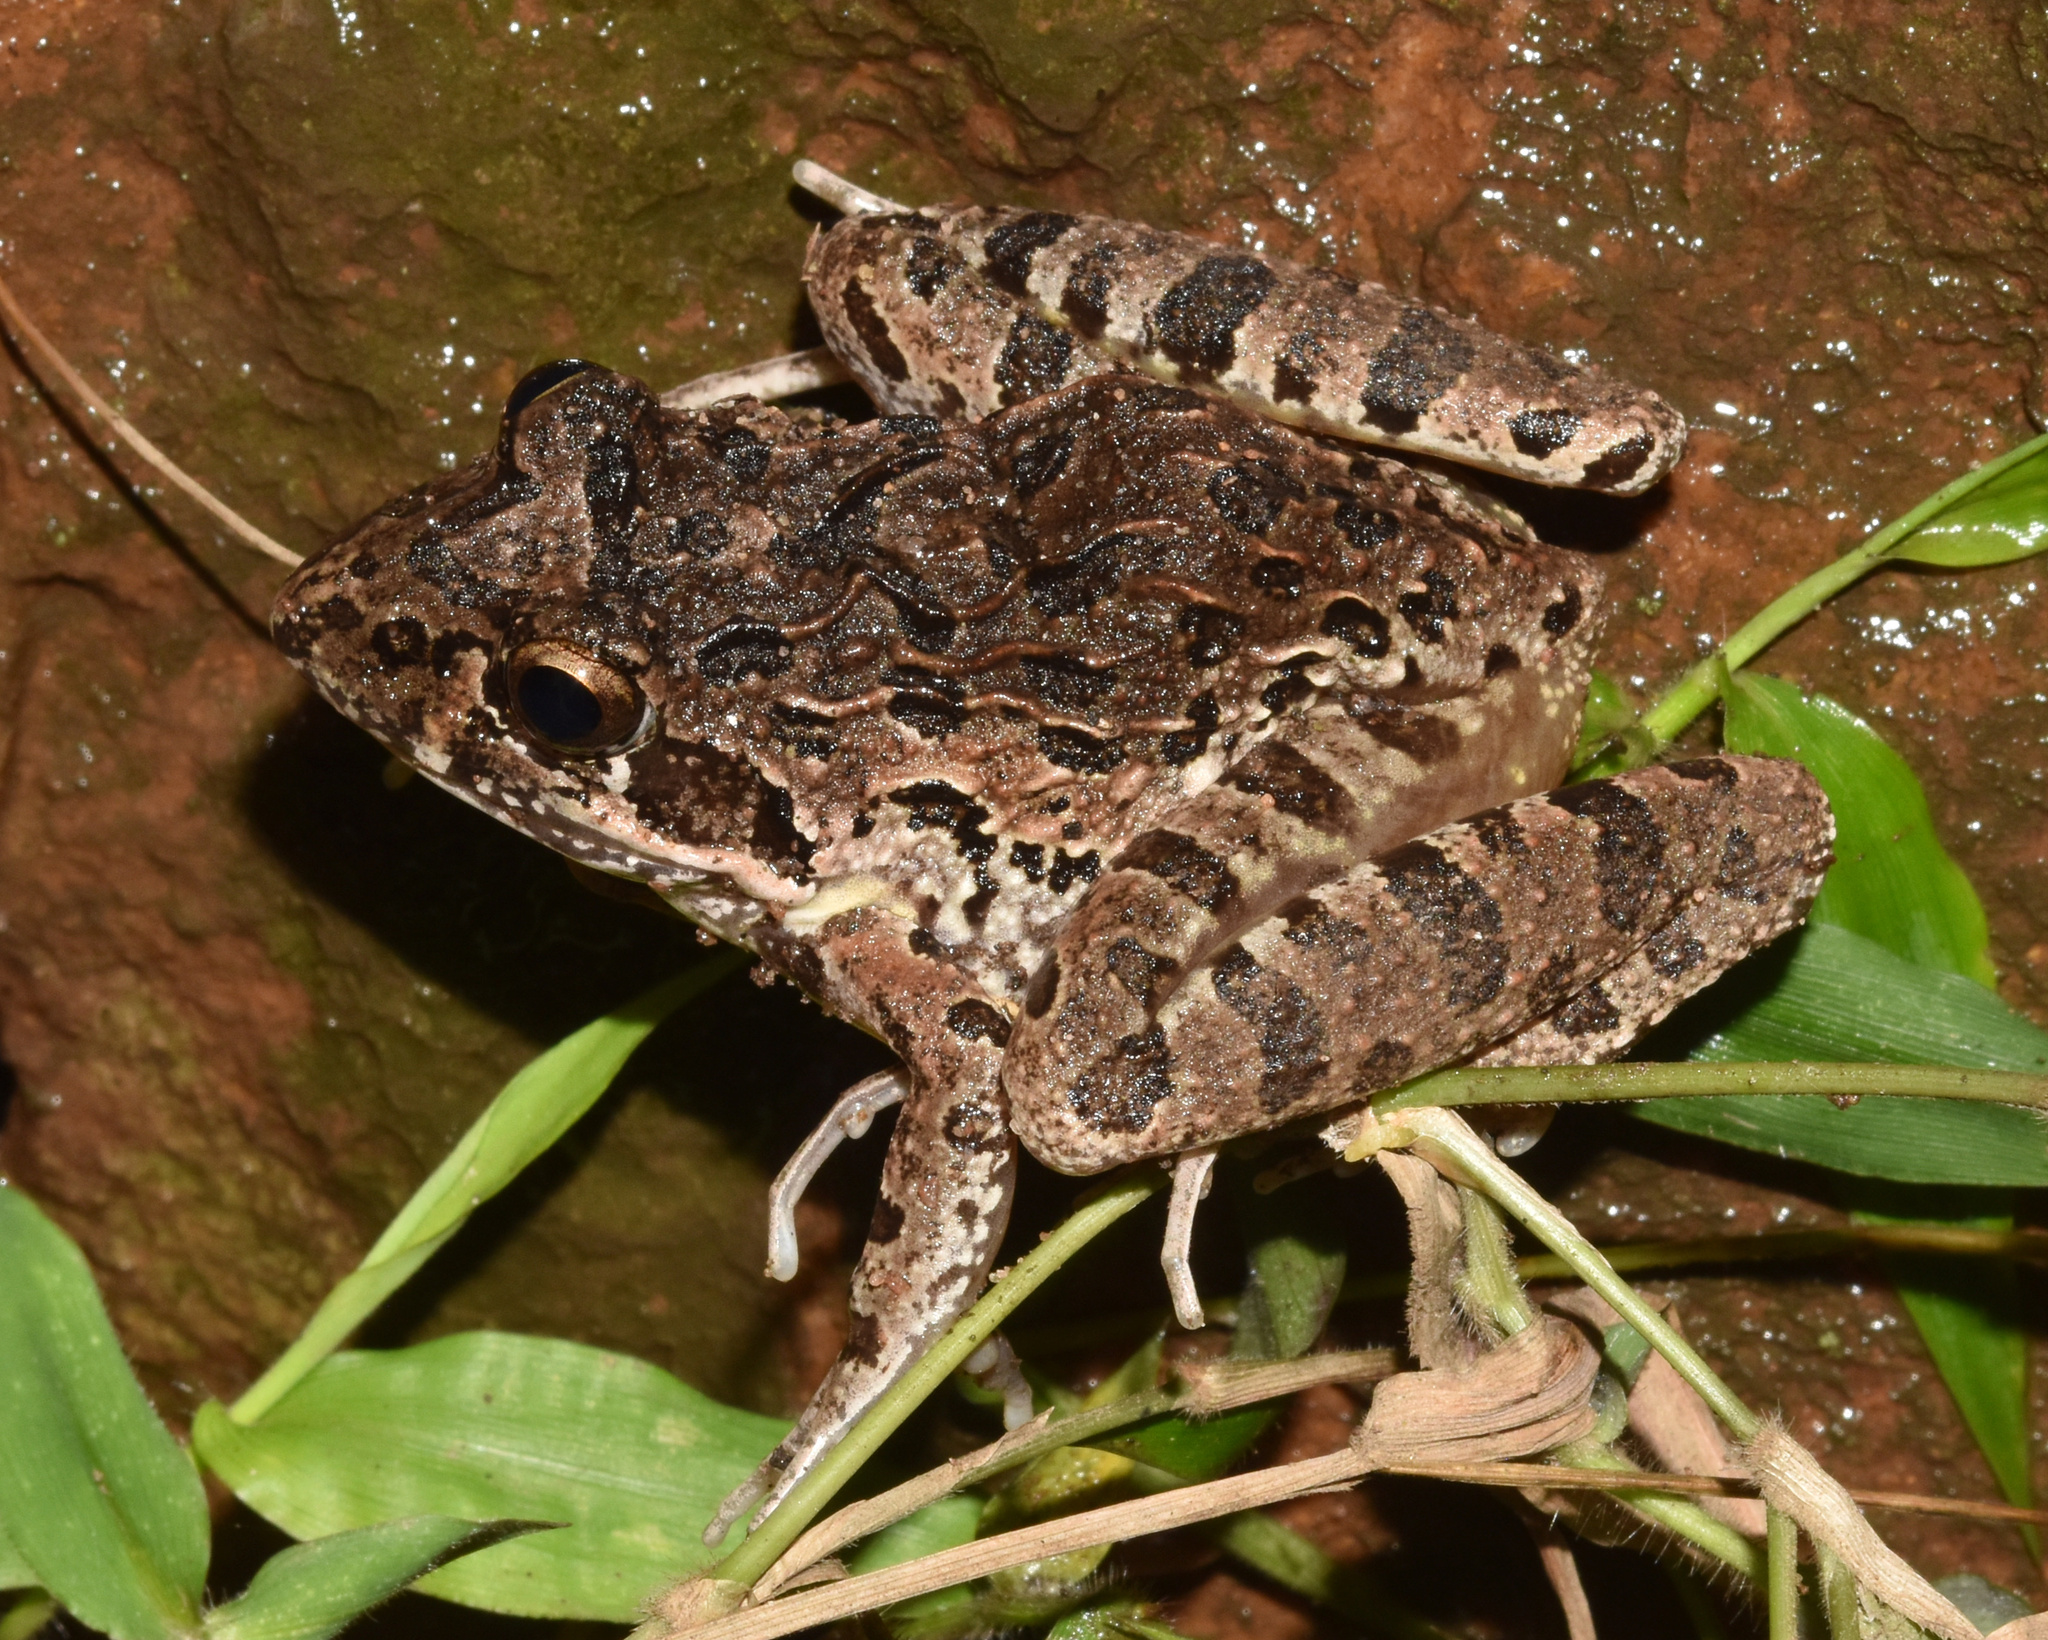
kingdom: Animalia
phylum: Chordata
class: Amphibia
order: Anura
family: Pyxicephalidae
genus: Strongylopus
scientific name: Strongylopus grayii
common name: Gray's stream frog
